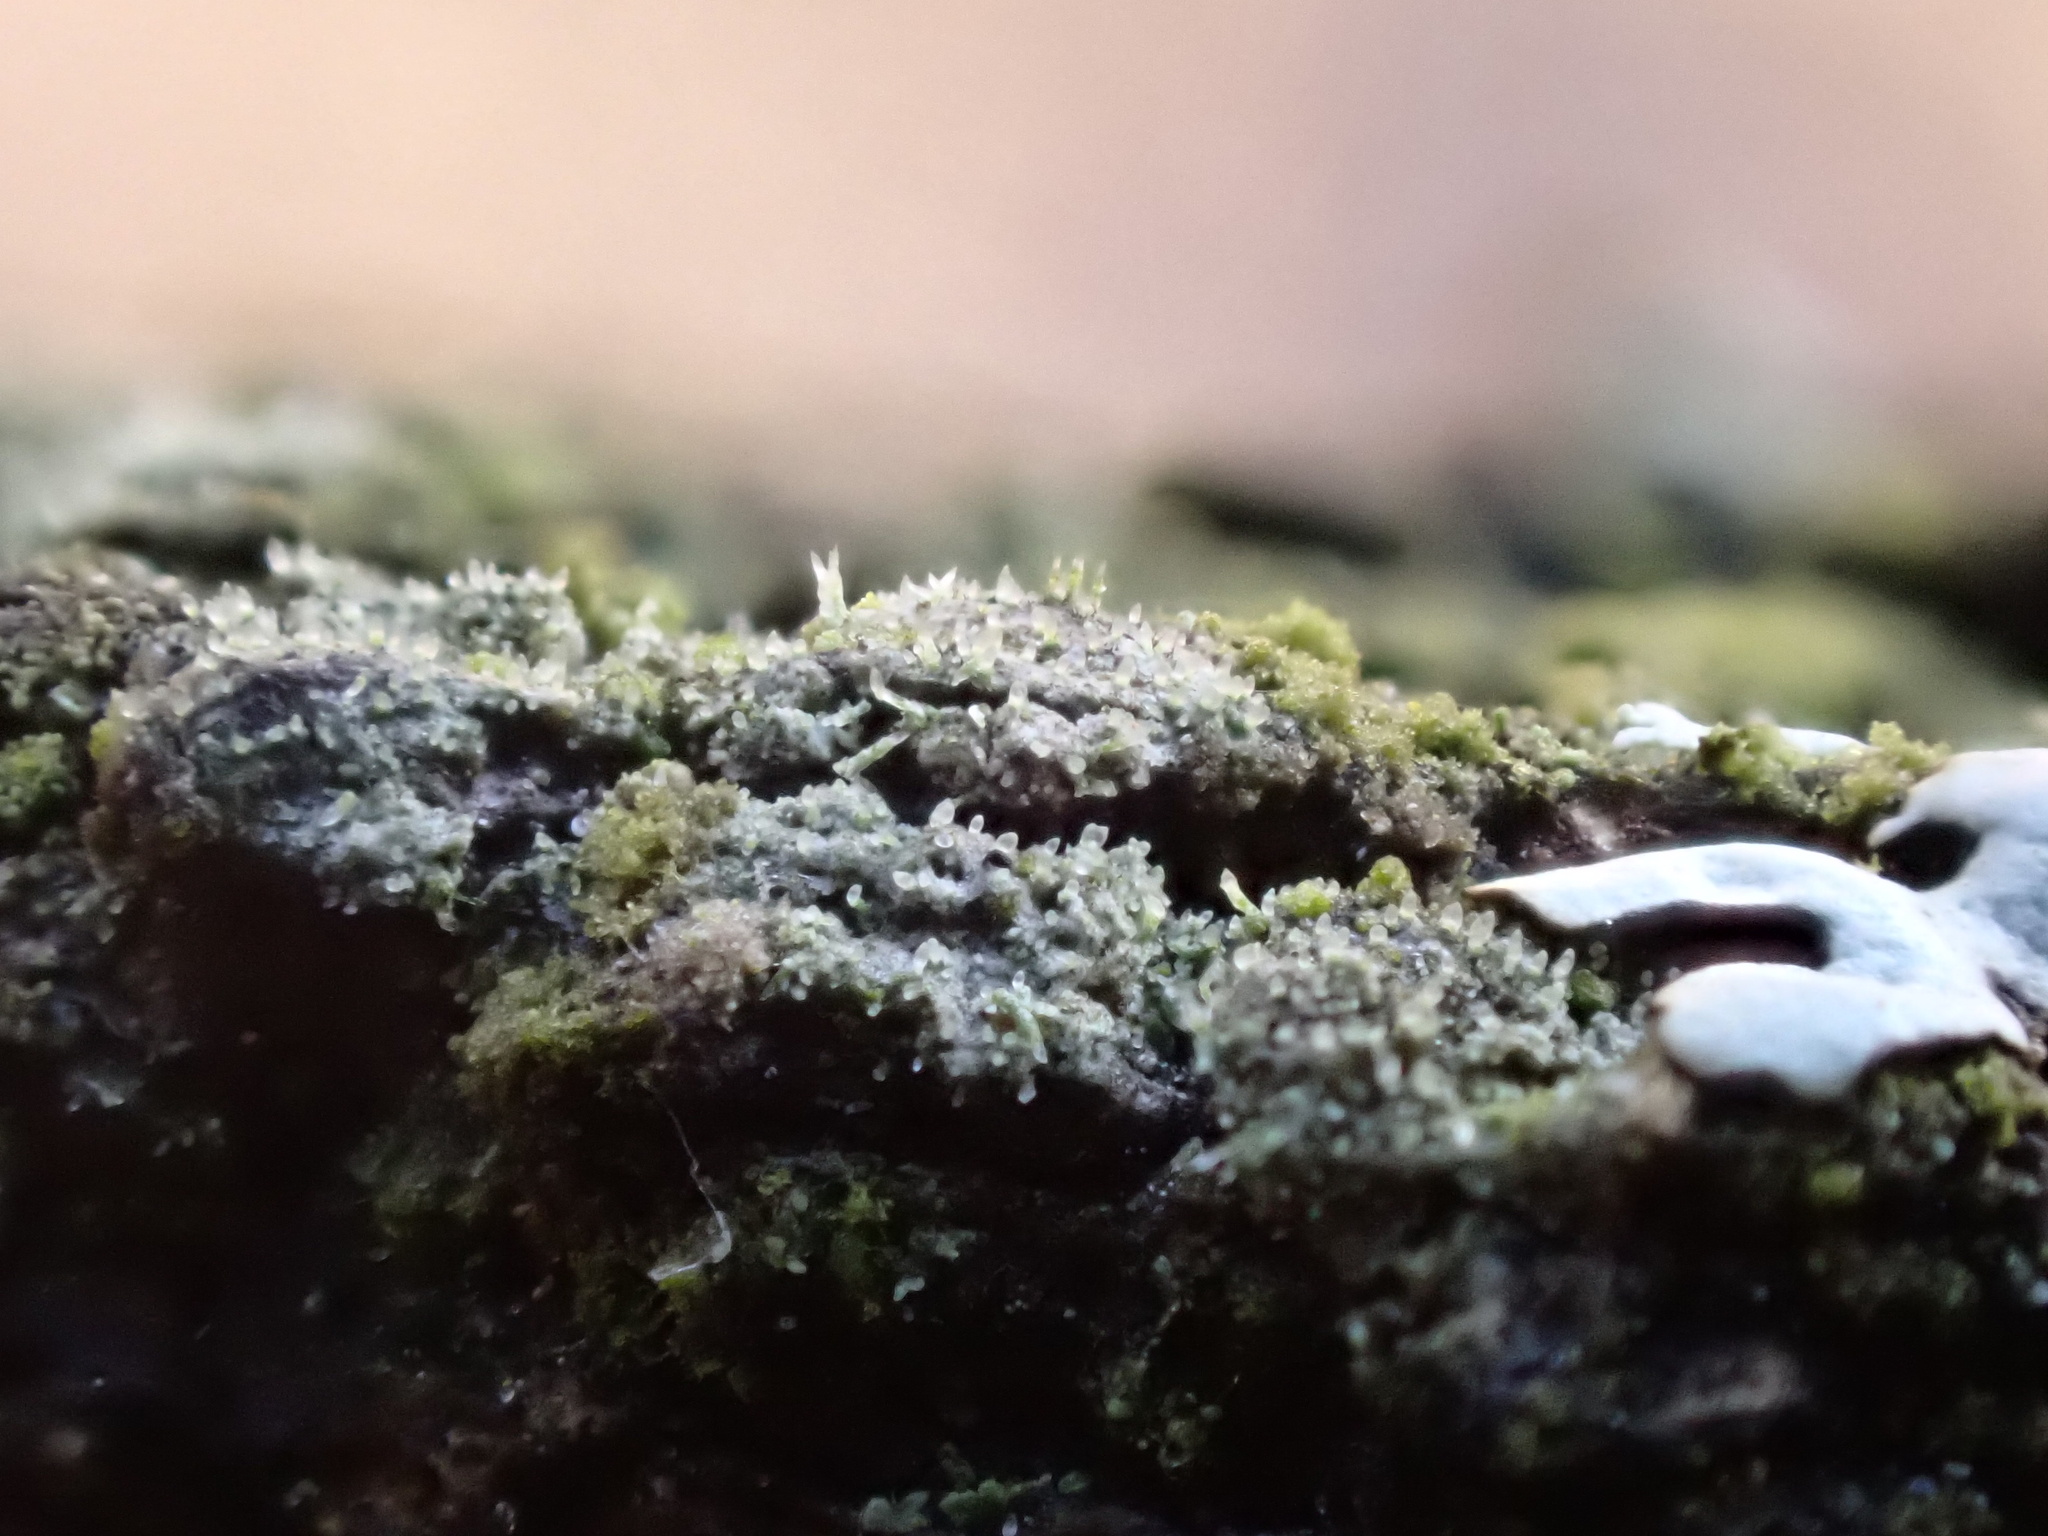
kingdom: Fungi
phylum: Ascomycota
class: Lecanoromycetes
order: Ostropales
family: Gomphillaceae
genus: Jamesiella
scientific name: Jamesiella anastomosans
